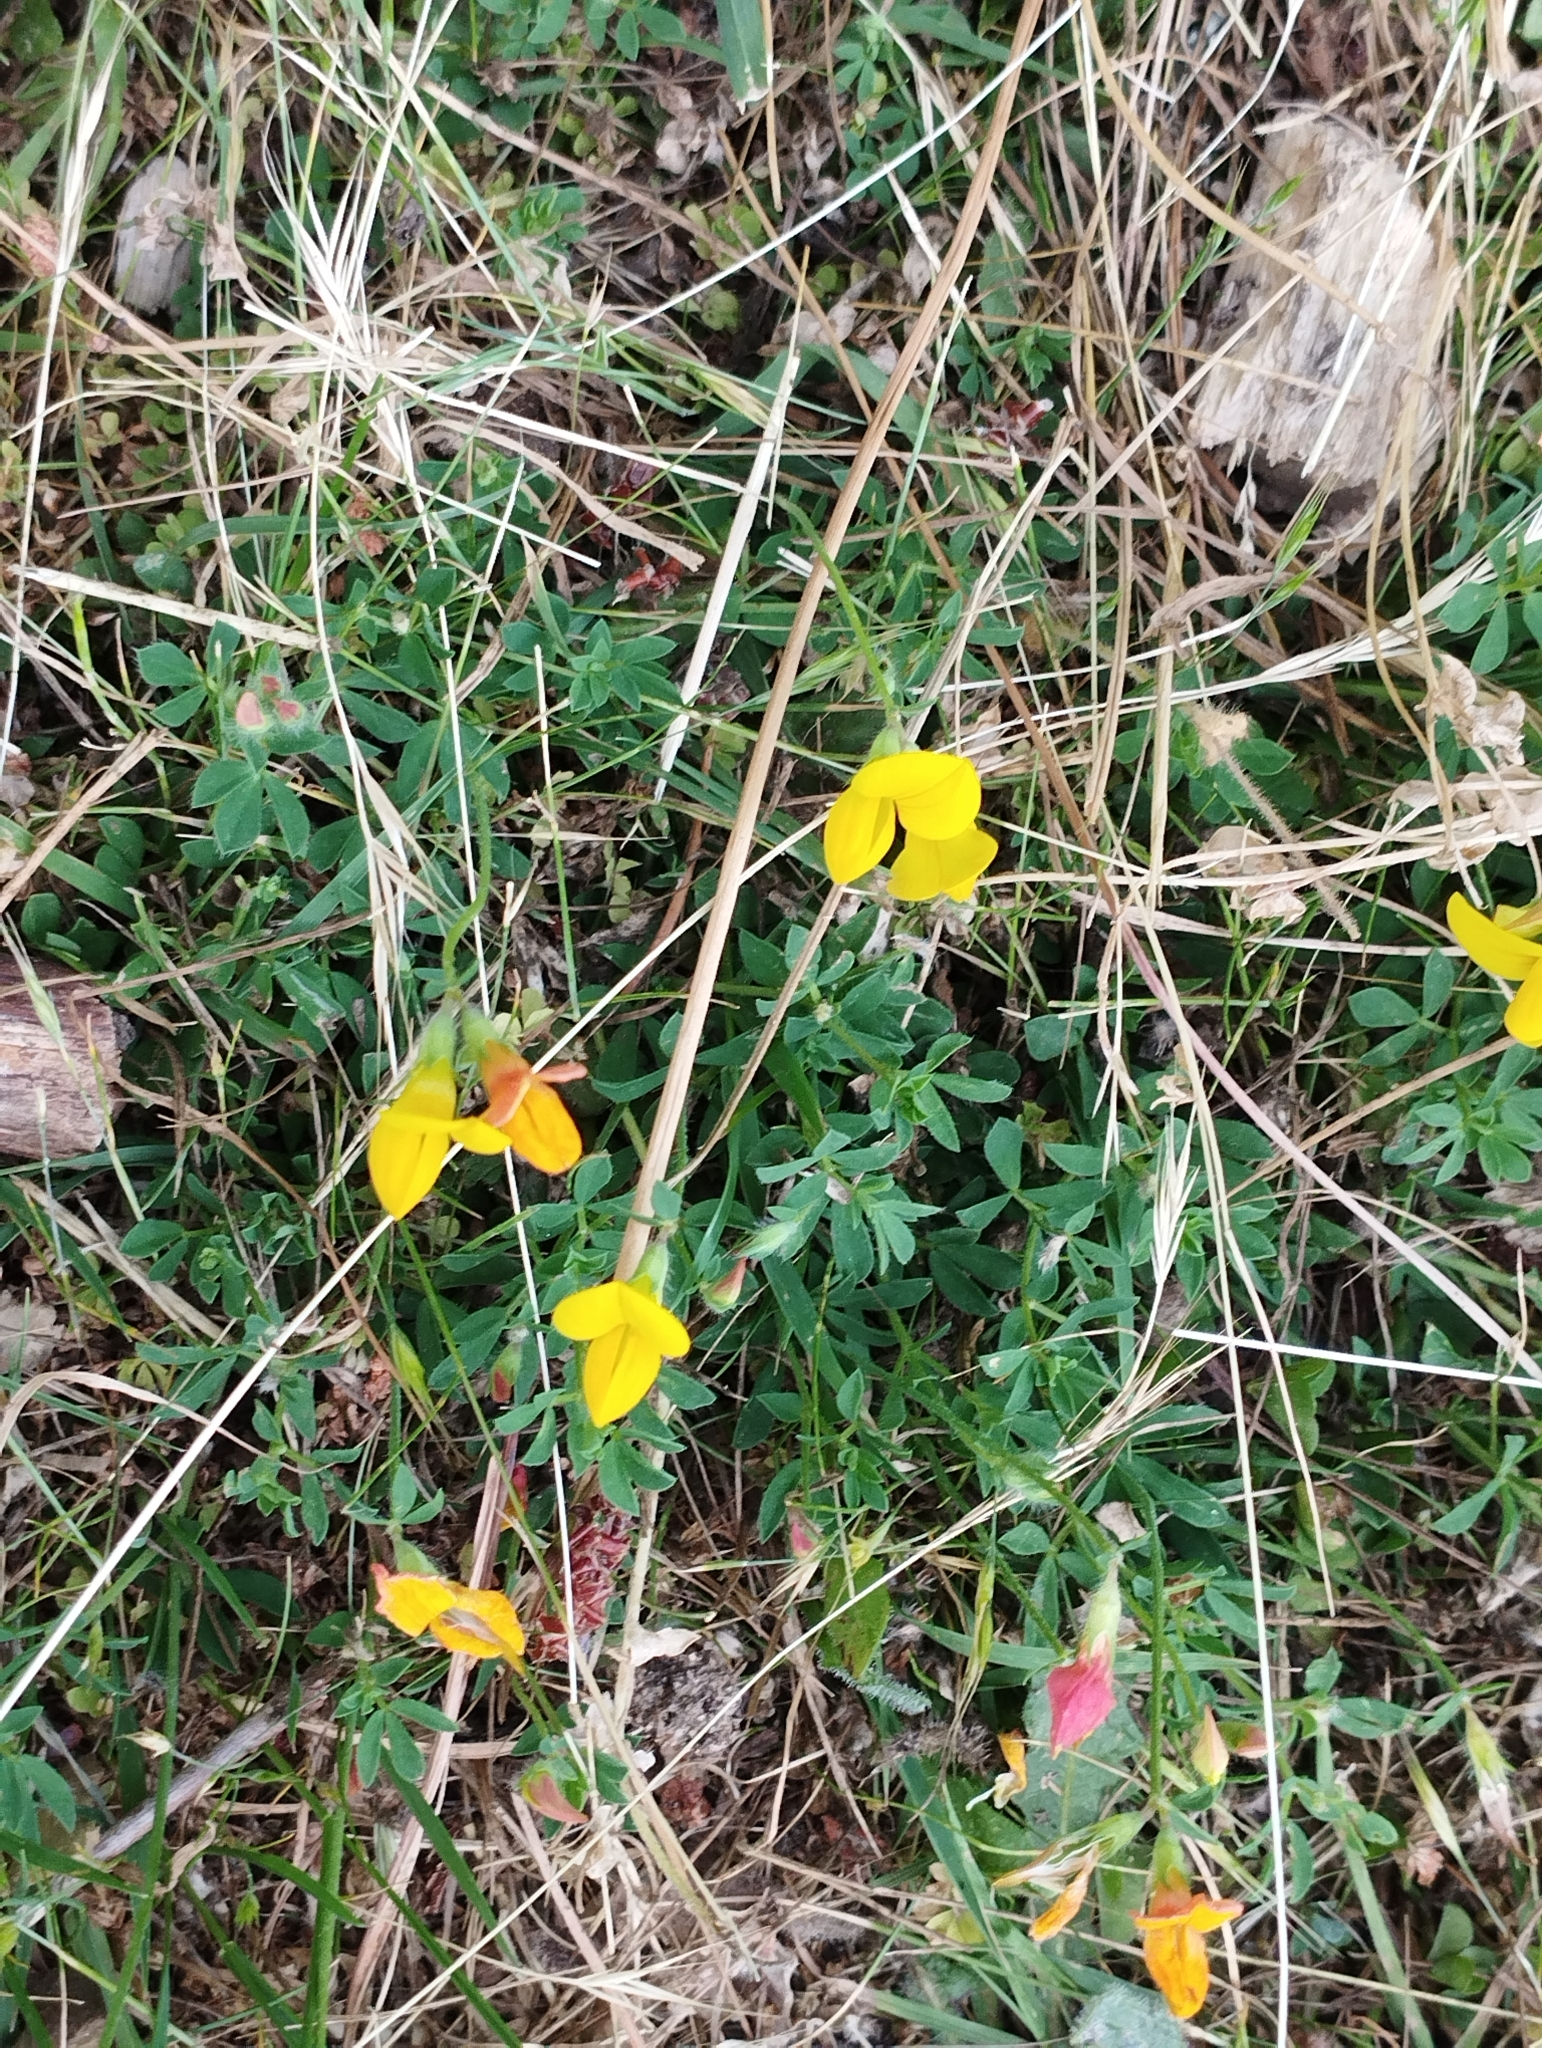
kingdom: Plantae
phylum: Tracheophyta
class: Magnoliopsida
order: Fabales
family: Fabaceae
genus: Lotus
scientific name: Lotus corniculatus
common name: Common bird's-foot-trefoil
